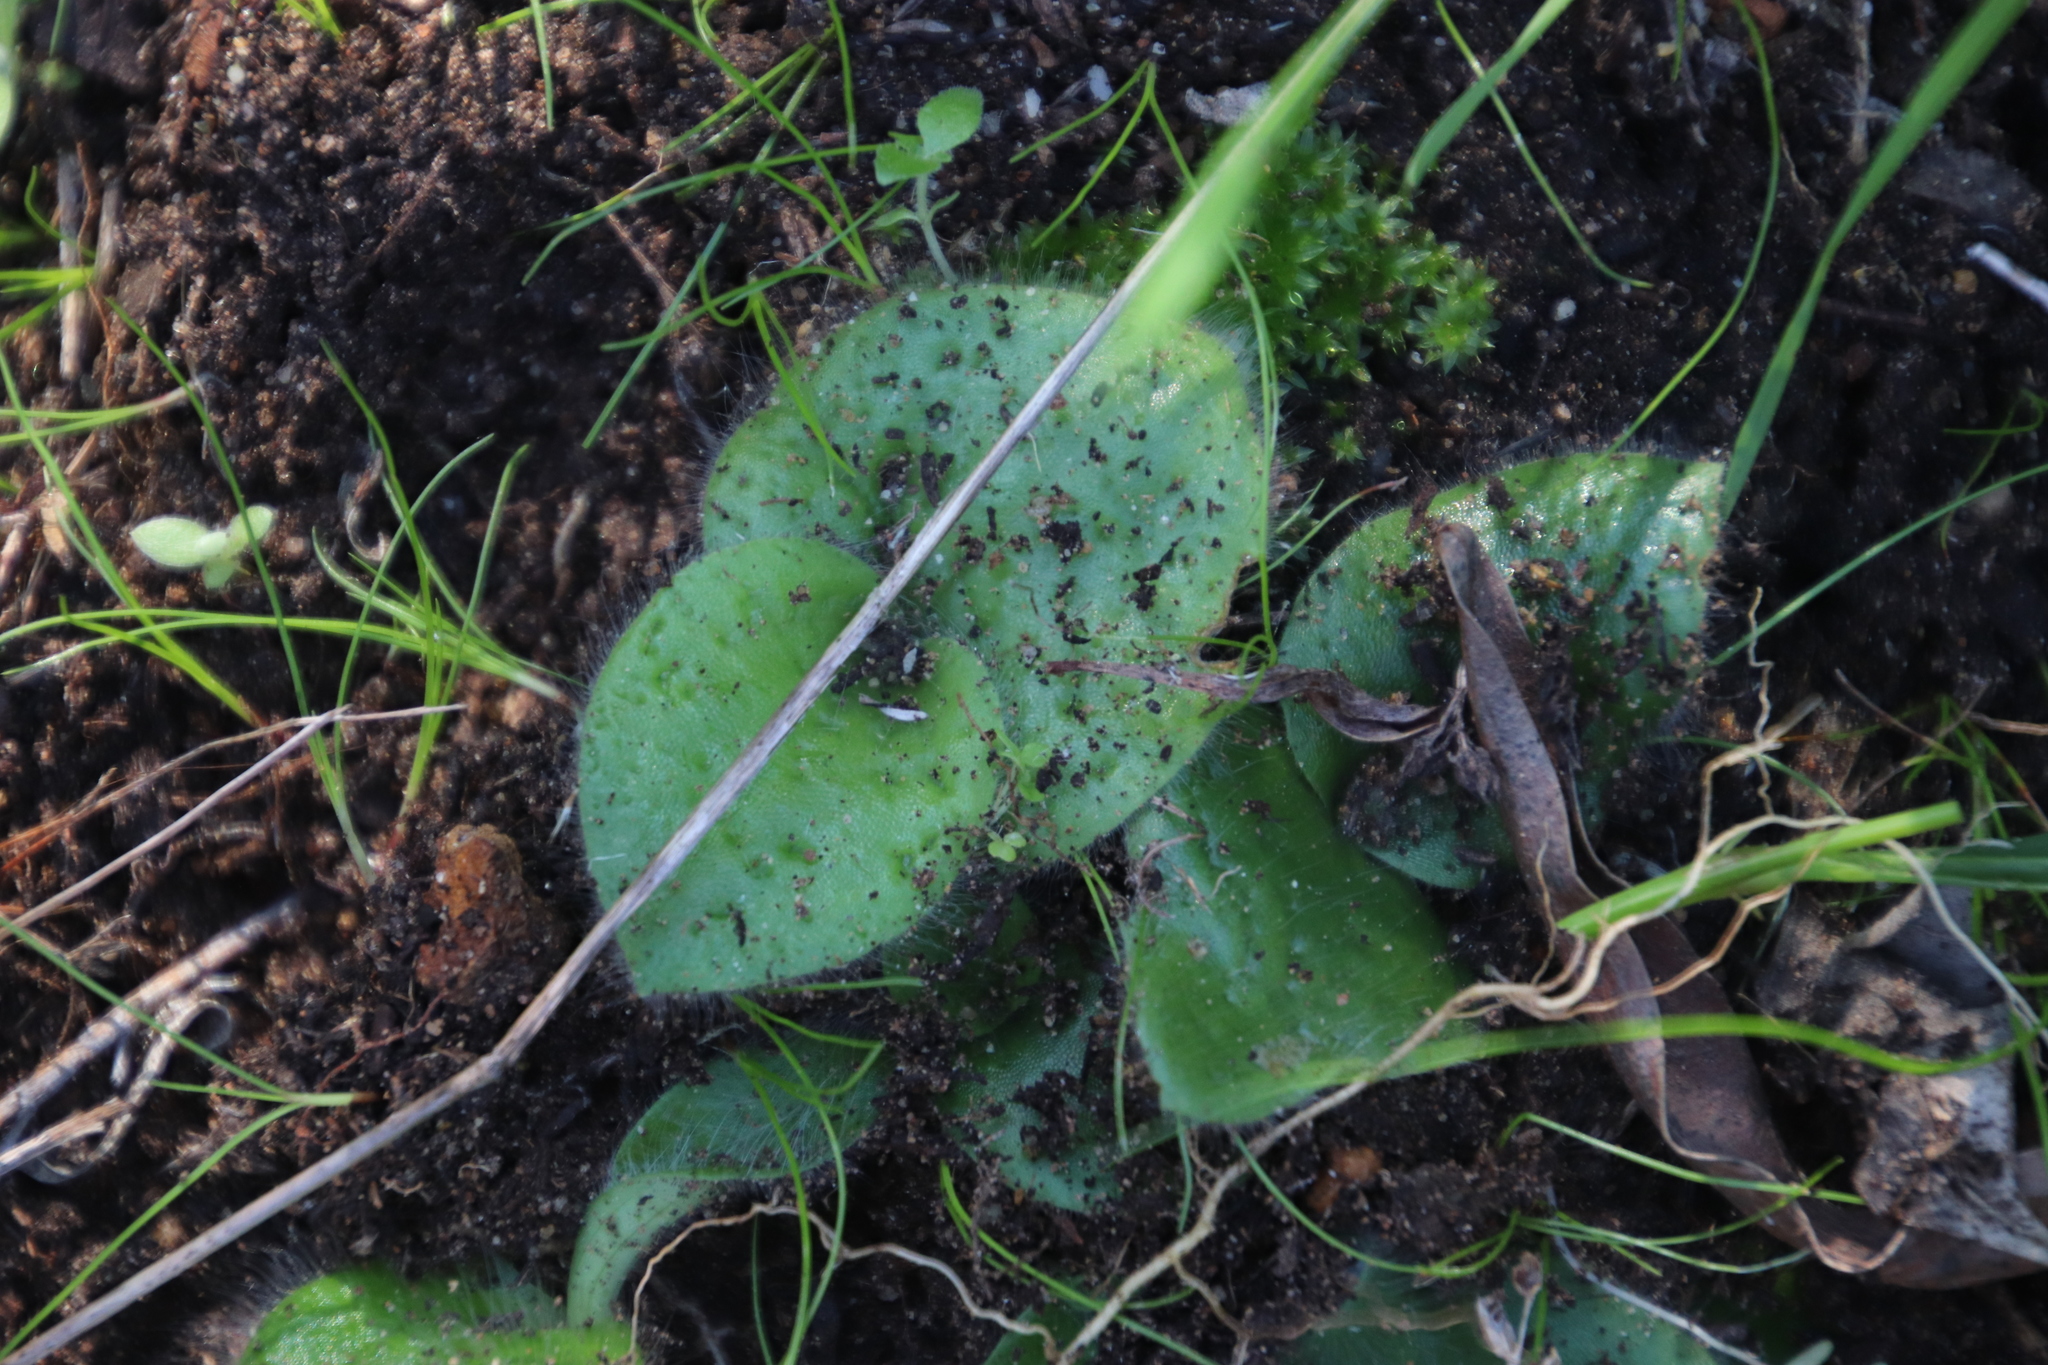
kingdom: Plantae
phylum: Tracheophyta
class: Liliopsida
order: Asparagales
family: Orchidaceae
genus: Holothrix
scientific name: Holothrix villosa
